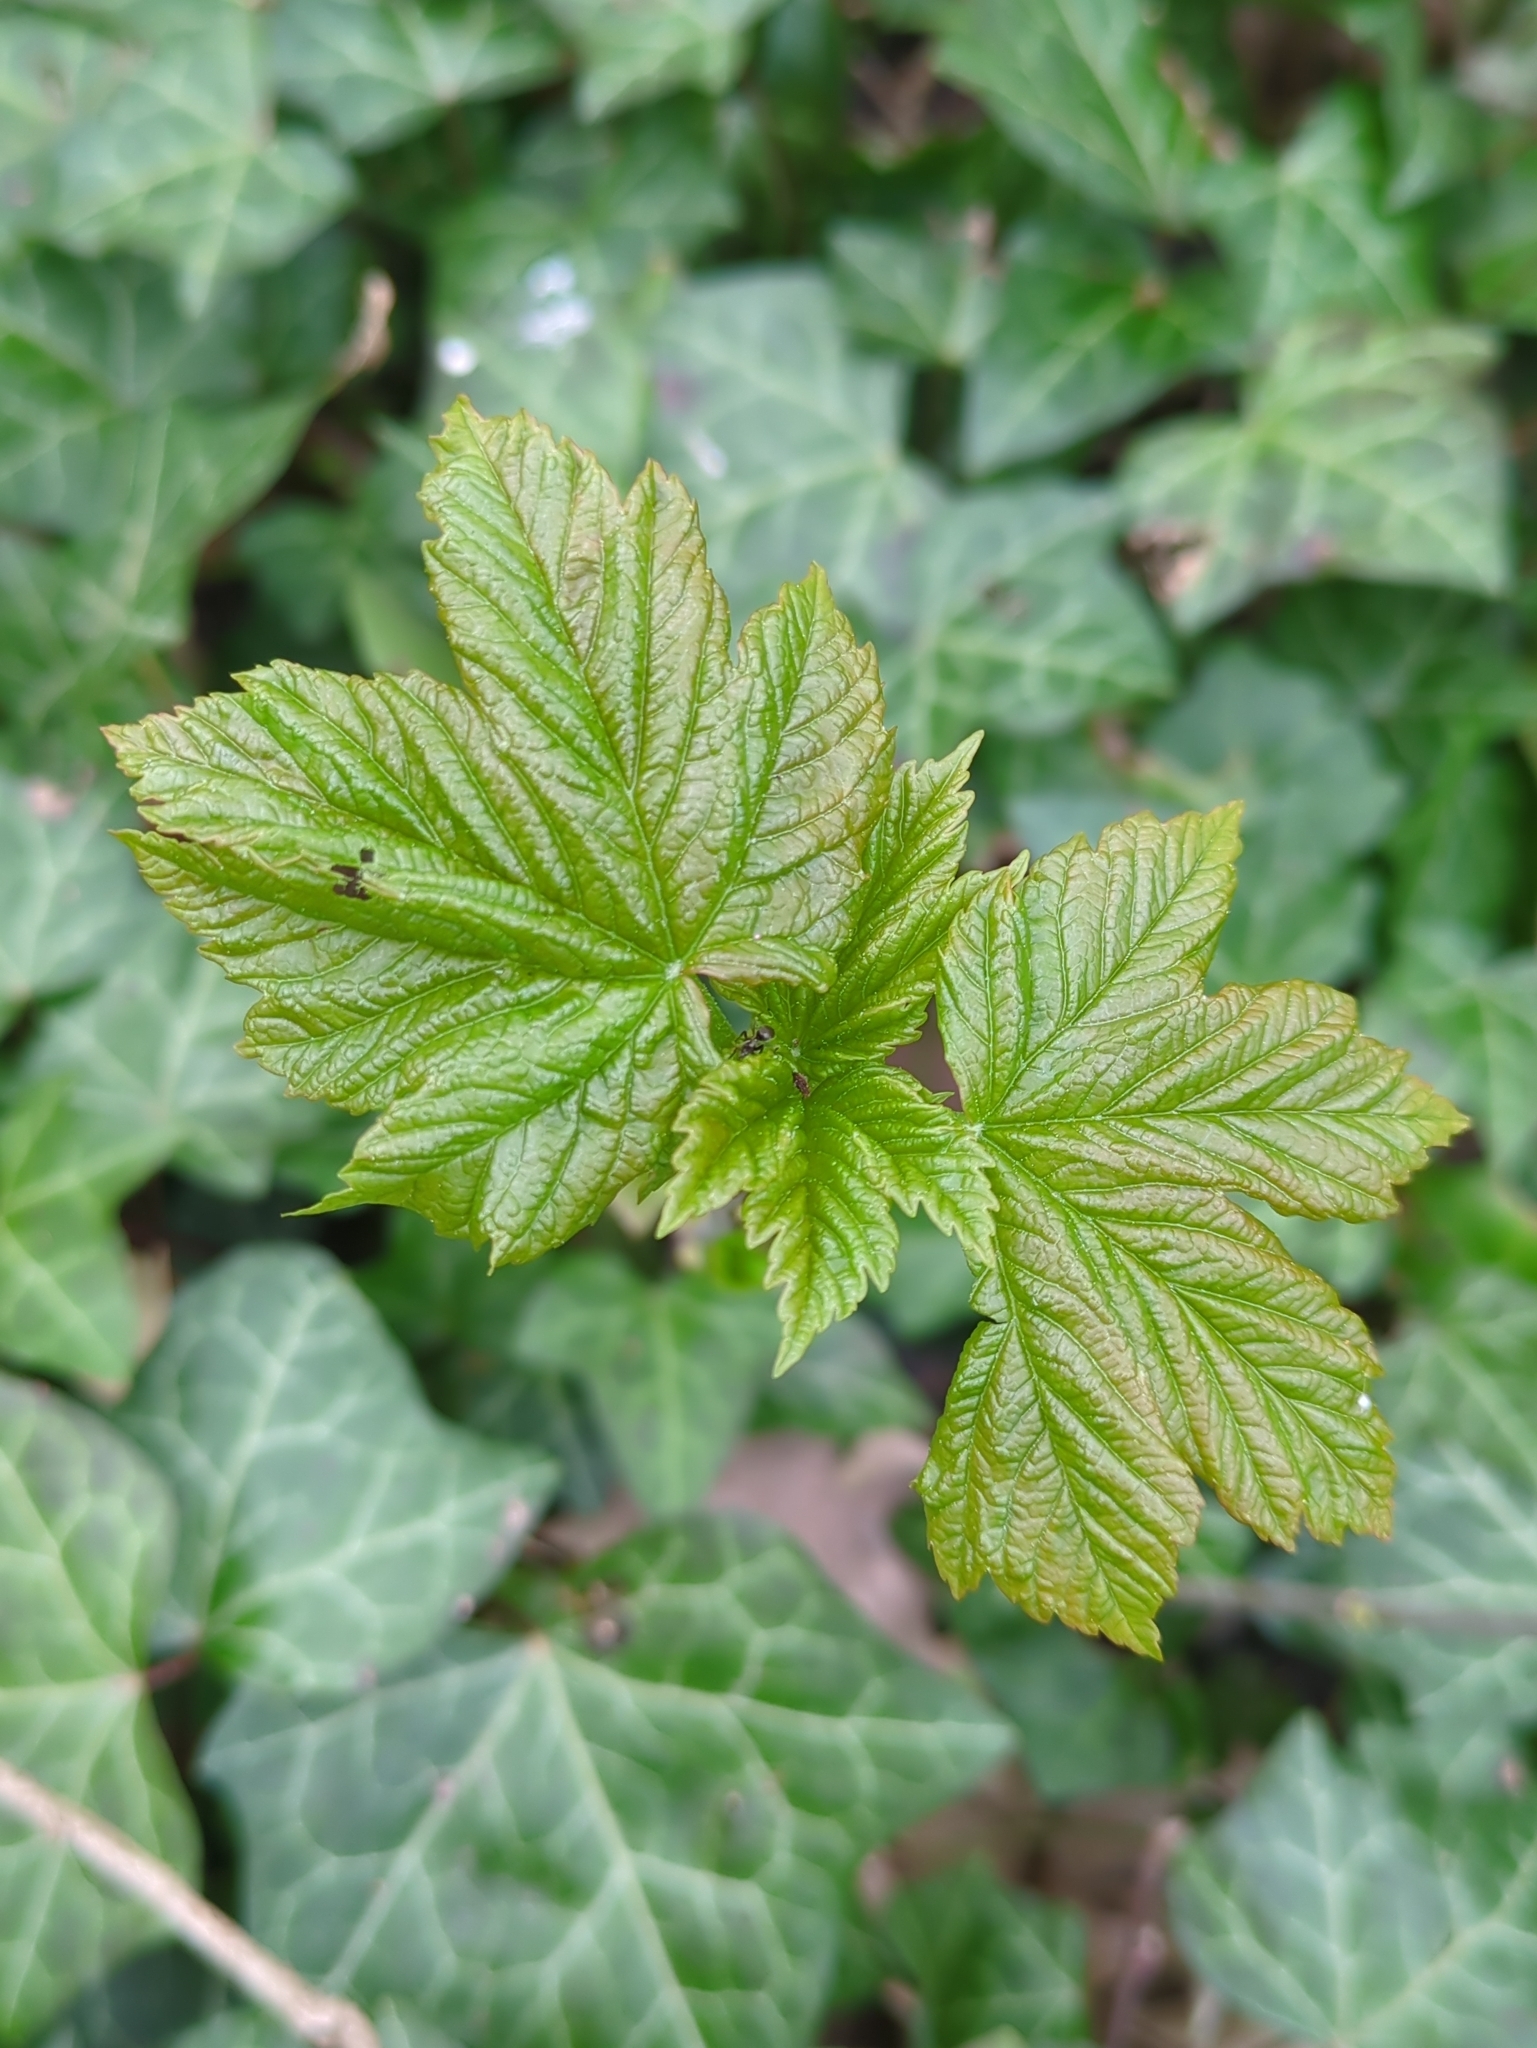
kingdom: Plantae
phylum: Tracheophyta
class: Magnoliopsida
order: Sapindales
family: Sapindaceae
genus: Acer
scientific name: Acer pseudoplatanus
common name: Sycamore
